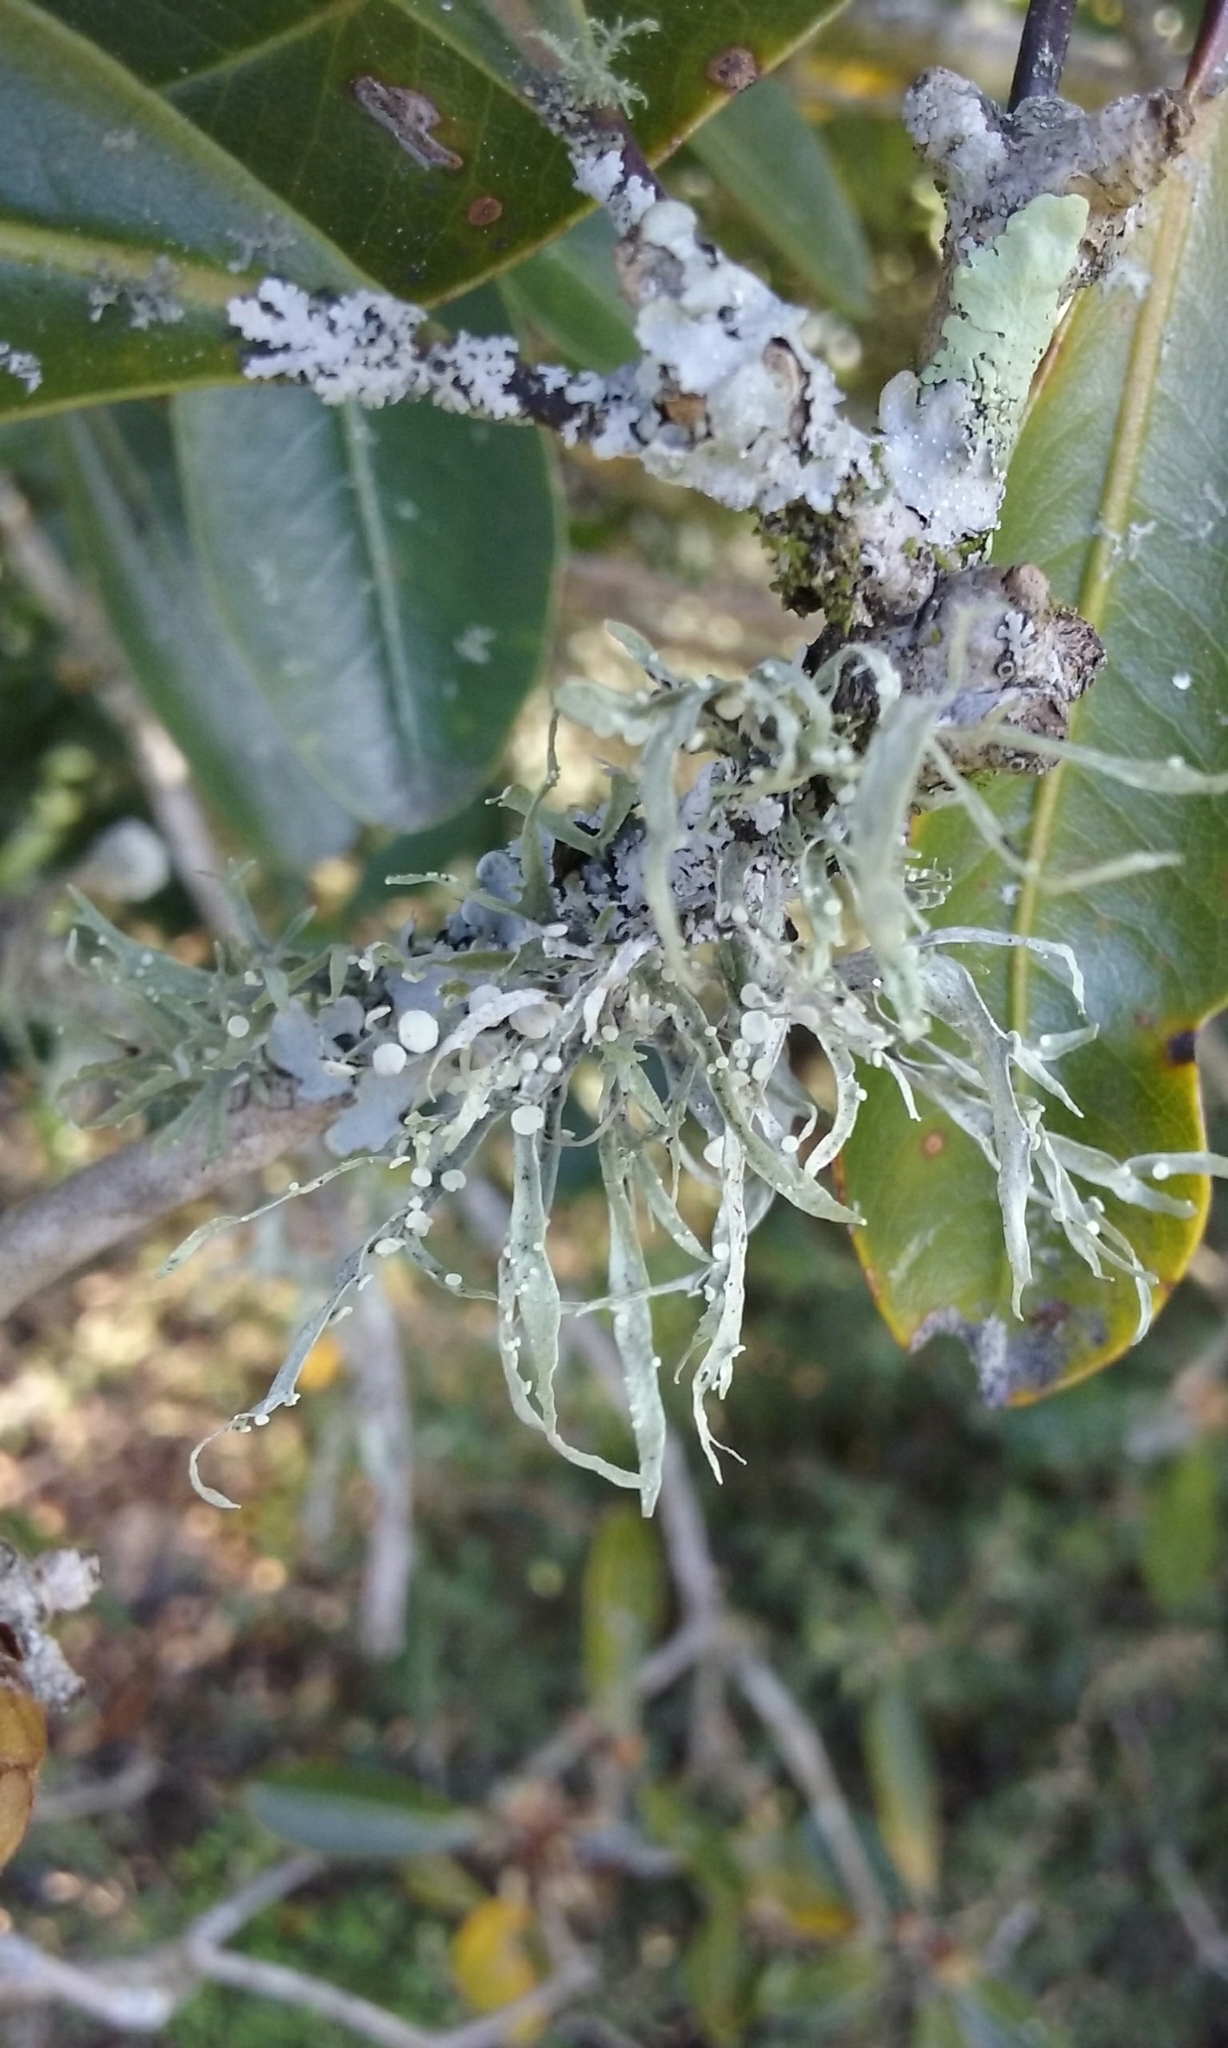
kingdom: Fungi
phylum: Ascomycota
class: Lecanoromycetes
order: Lecanorales
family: Ramalinaceae
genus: Ramalina
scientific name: Ramalina celastri
